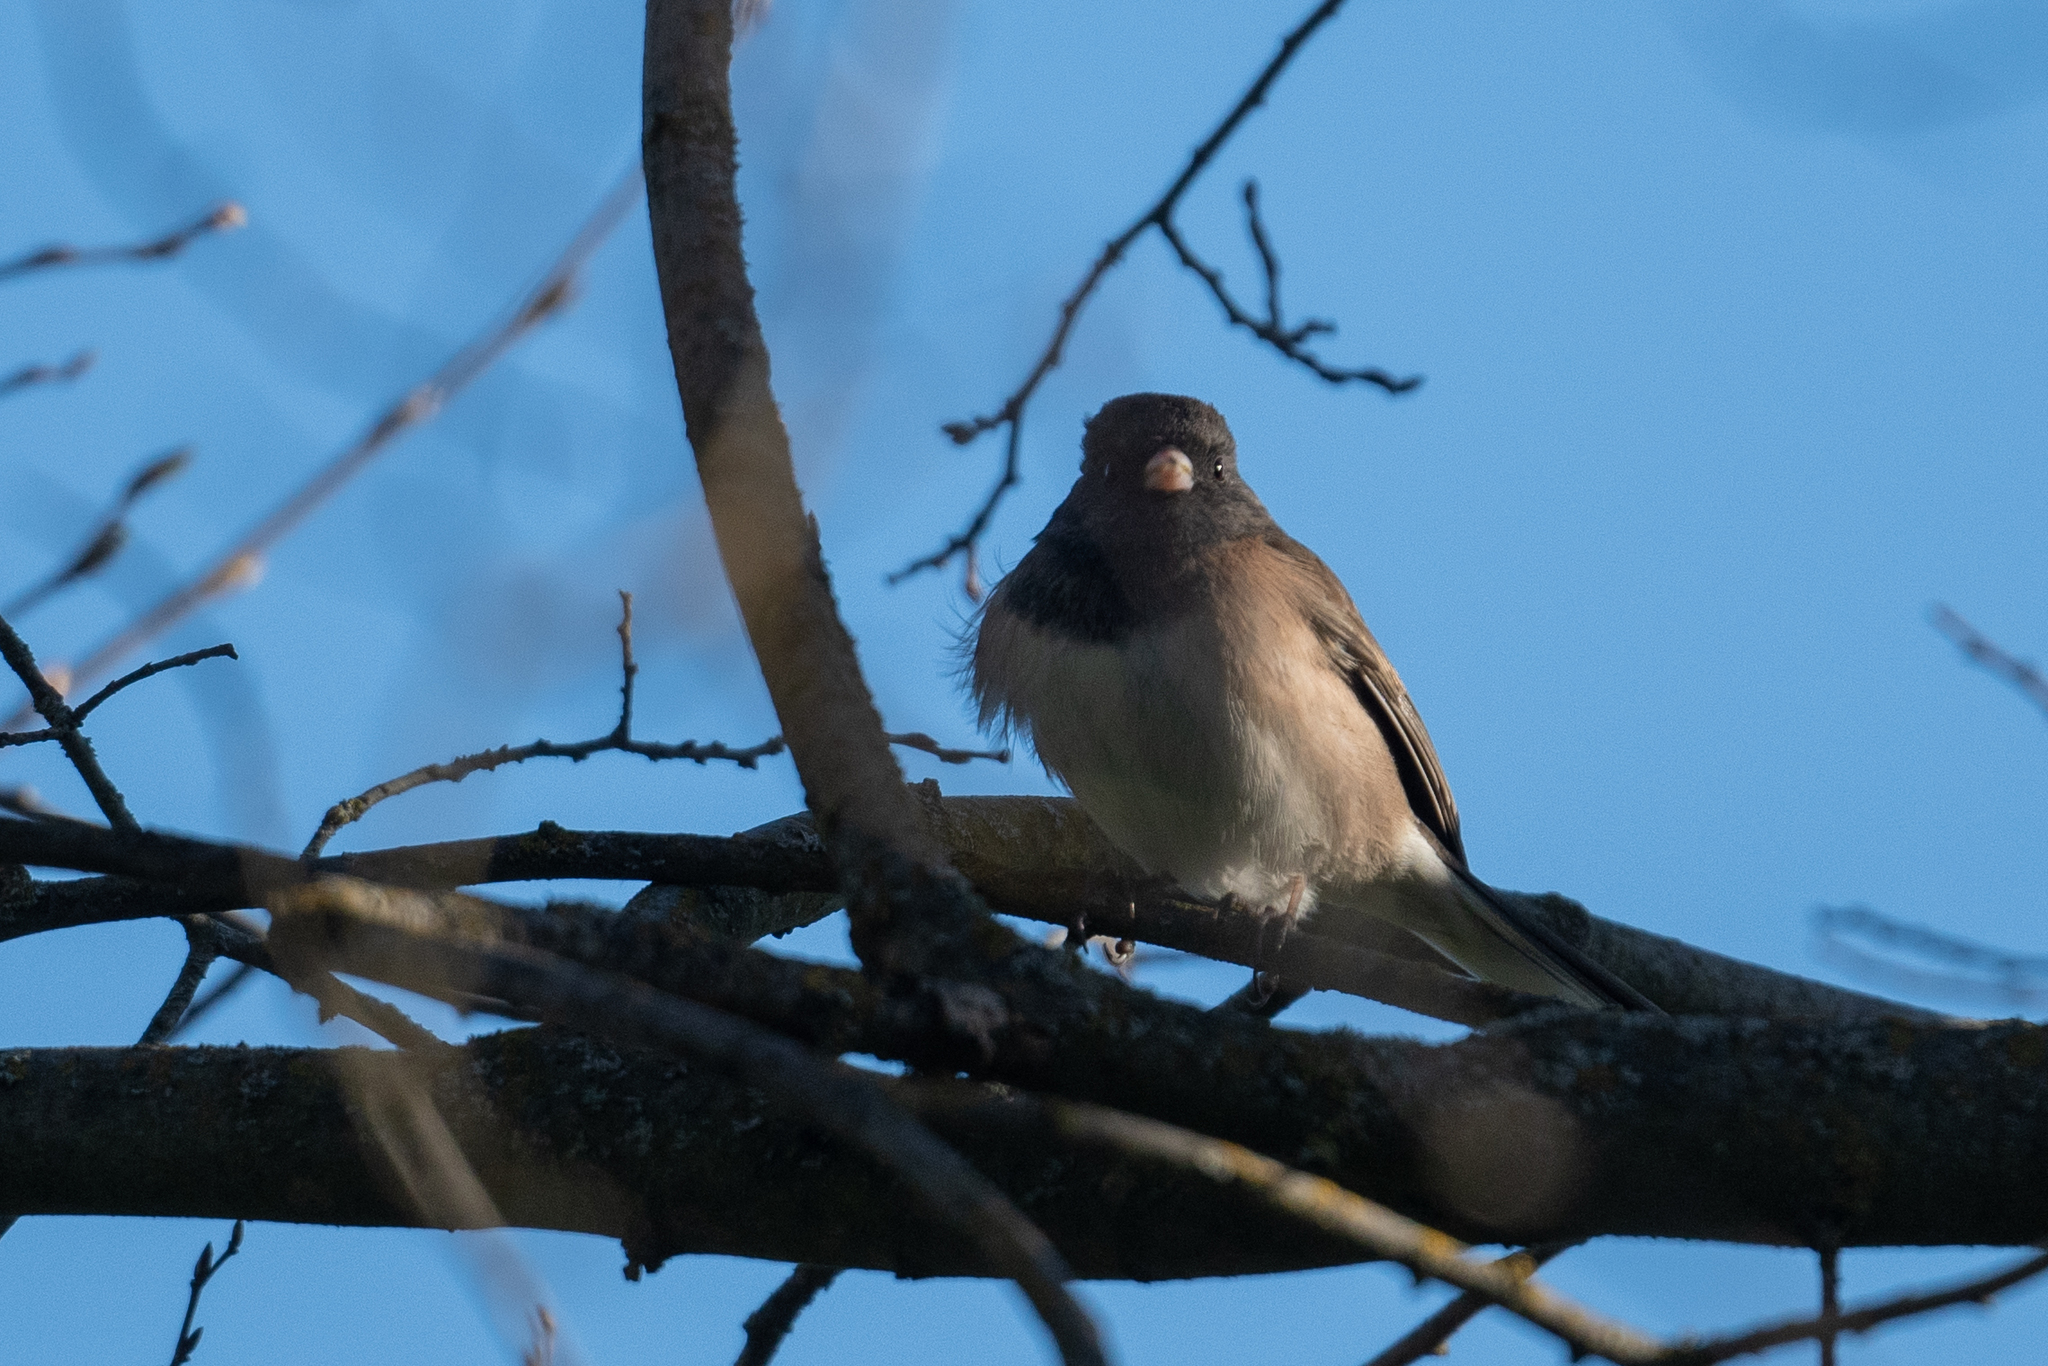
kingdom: Animalia
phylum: Chordata
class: Aves
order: Passeriformes
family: Passerellidae
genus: Junco
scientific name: Junco hyemalis
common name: Dark-eyed junco
